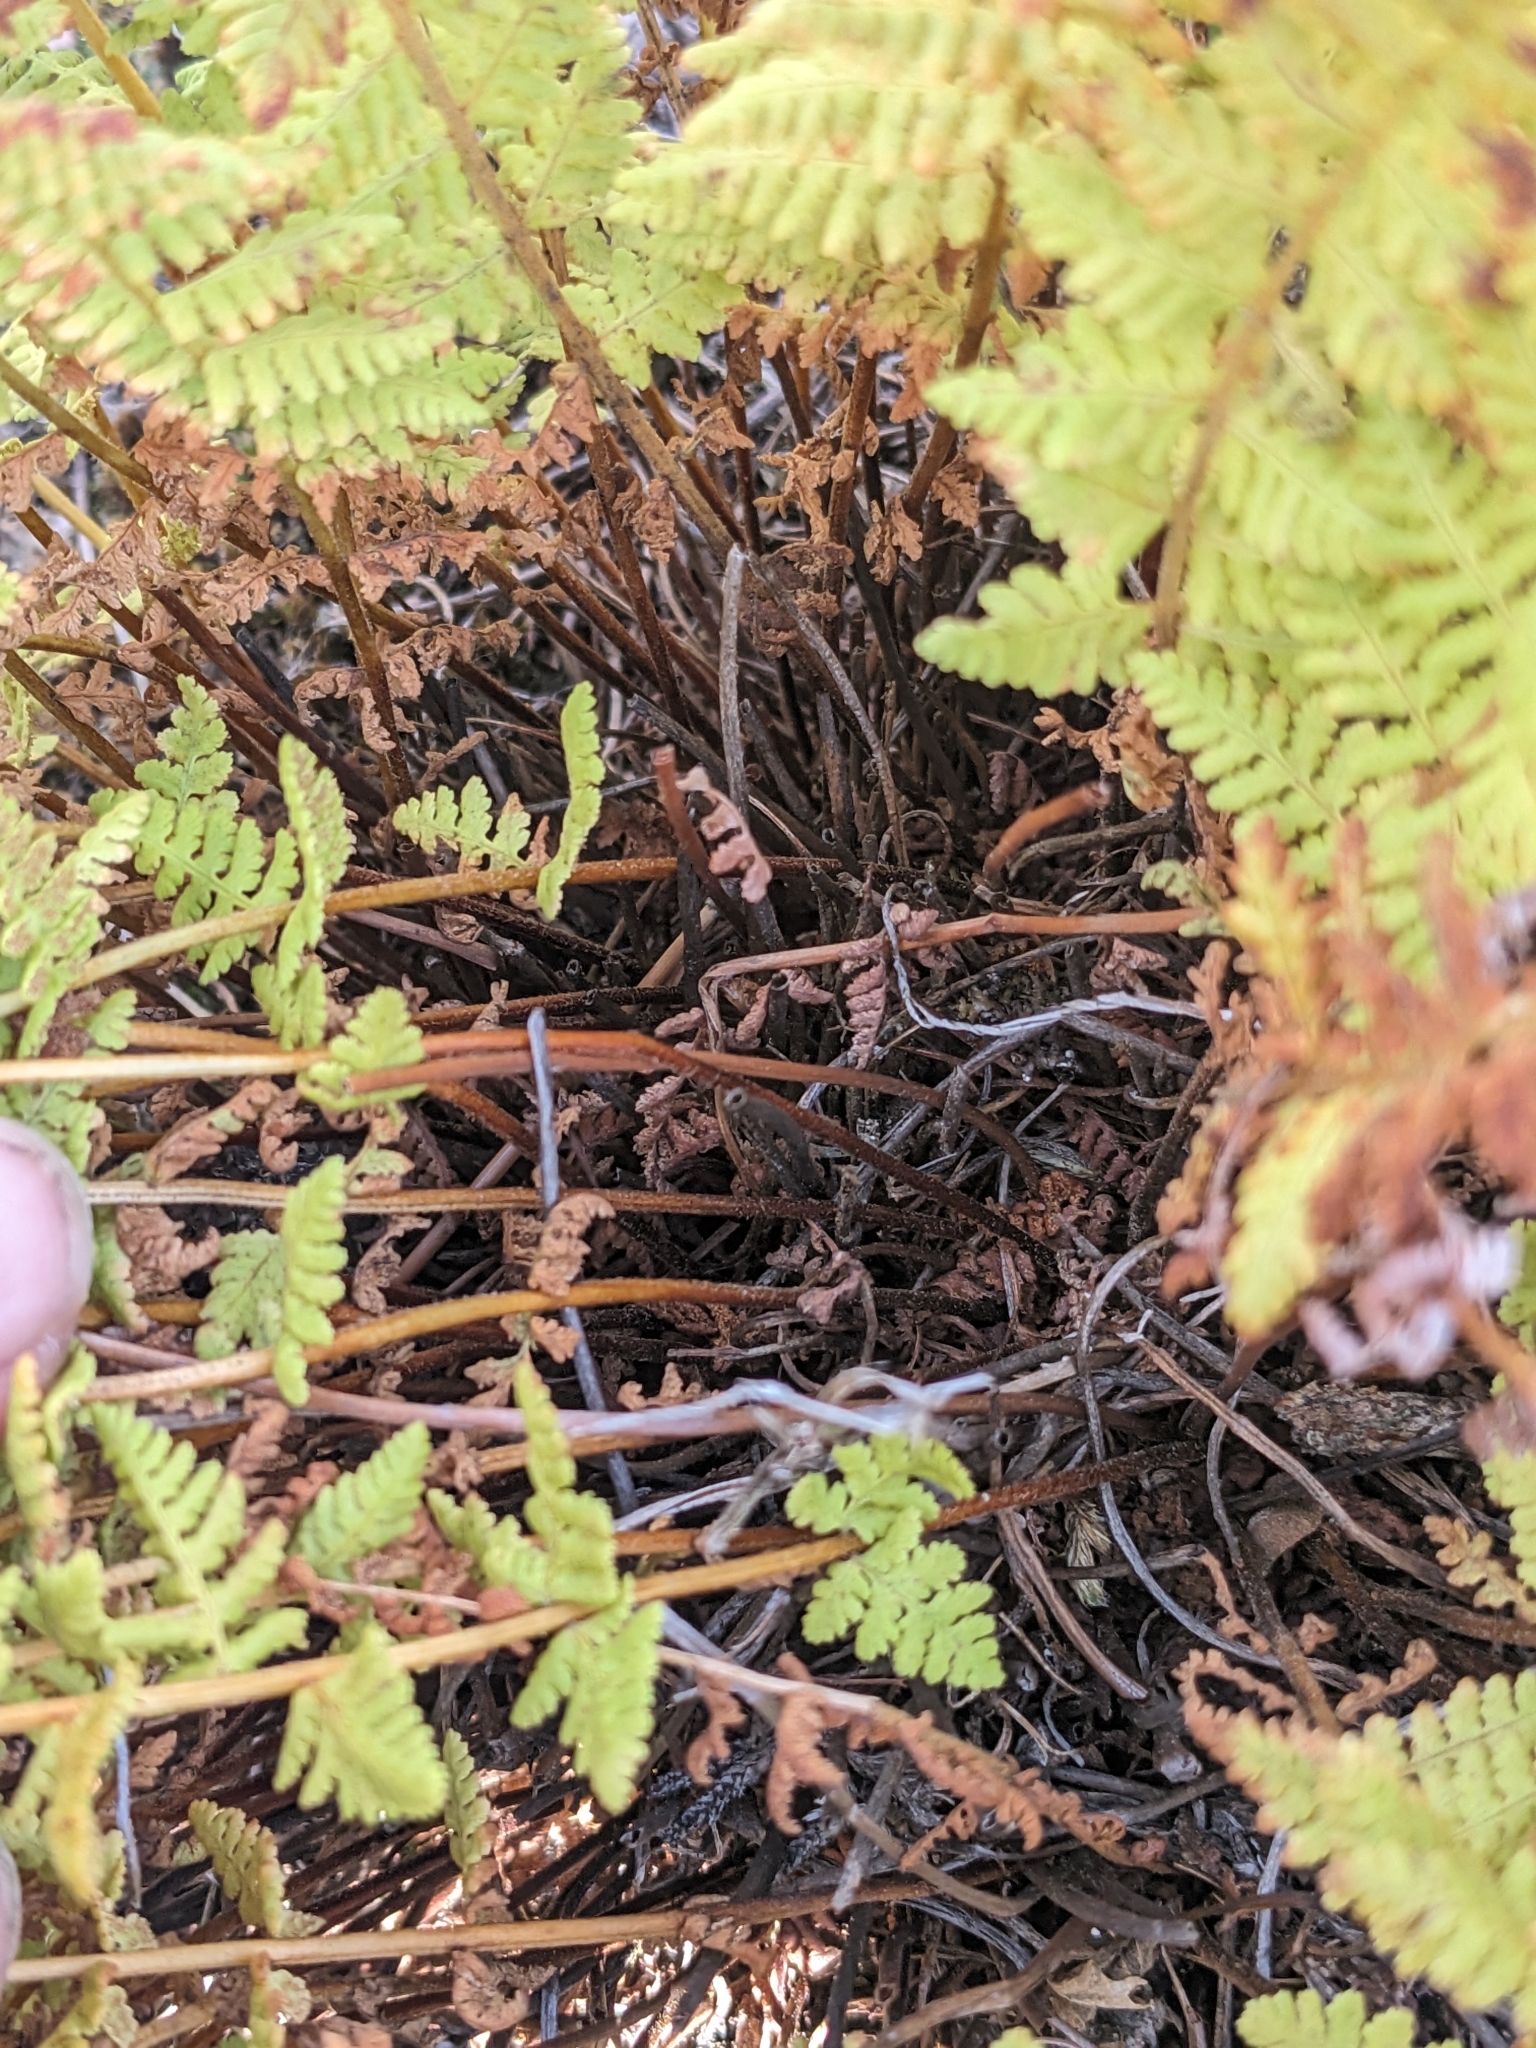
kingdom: Plantae
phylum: Tracheophyta
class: Polypodiopsida
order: Polypodiales
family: Woodsiaceae
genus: Physematium
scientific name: Physematium scopulinum
